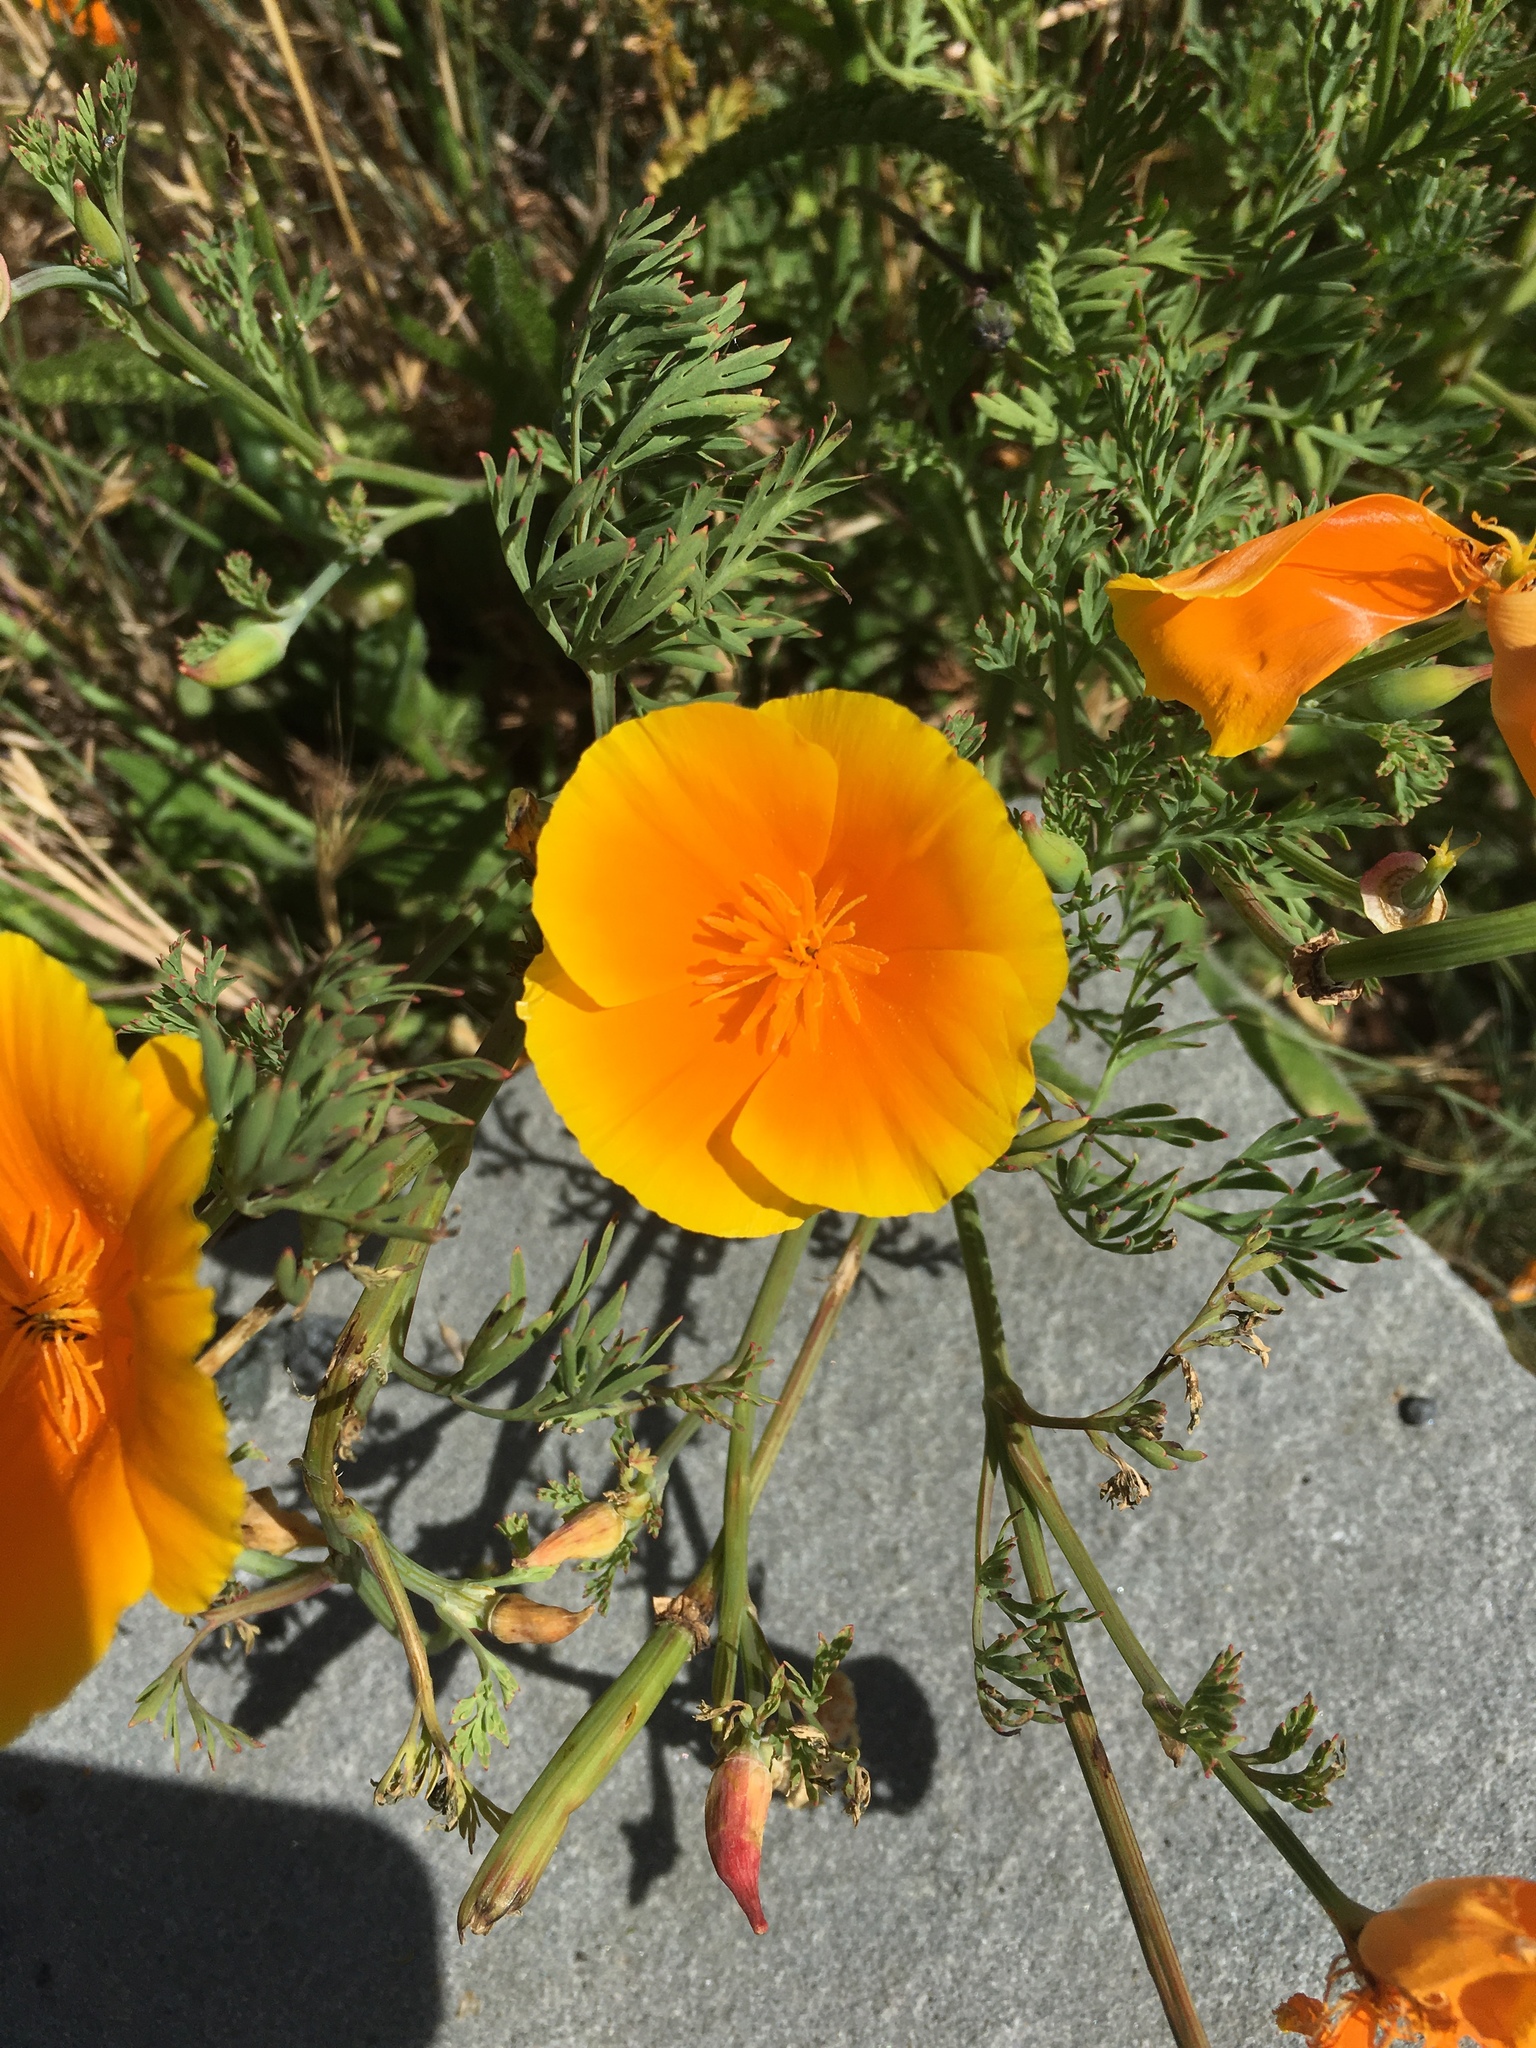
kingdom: Plantae
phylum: Tracheophyta
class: Magnoliopsida
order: Ranunculales
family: Papaveraceae
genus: Eschscholzia
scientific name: Eschscholzia californica
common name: California poppy
